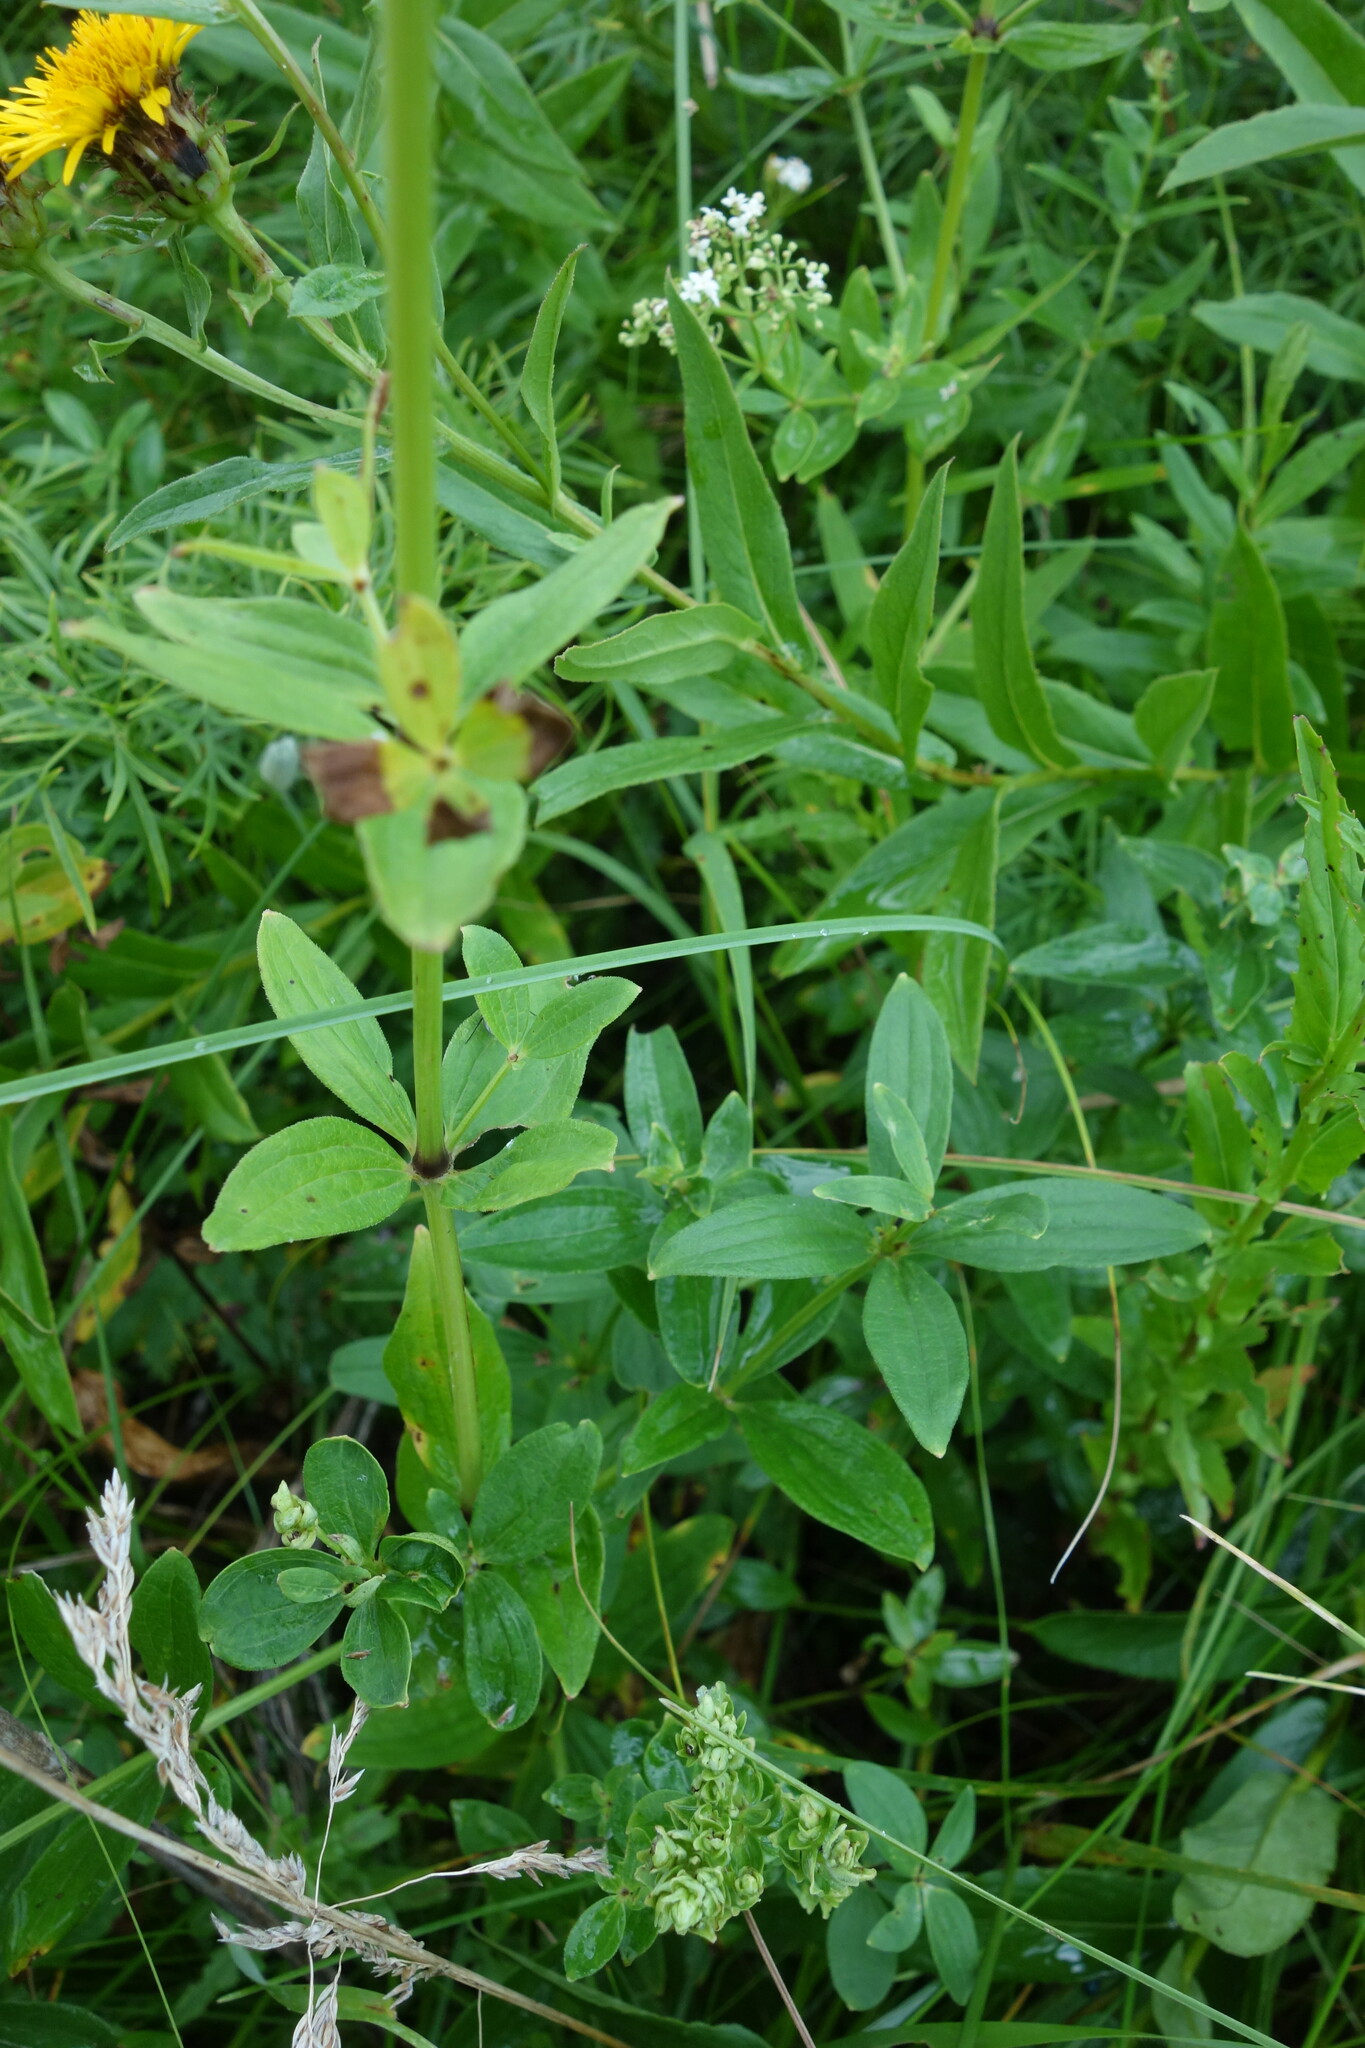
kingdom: Plantae
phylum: Tracheophyta
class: Magnoliopsida
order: Gentianales
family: Rubiaceae
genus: Galium
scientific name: Galium rubioides
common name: European bedstraw
